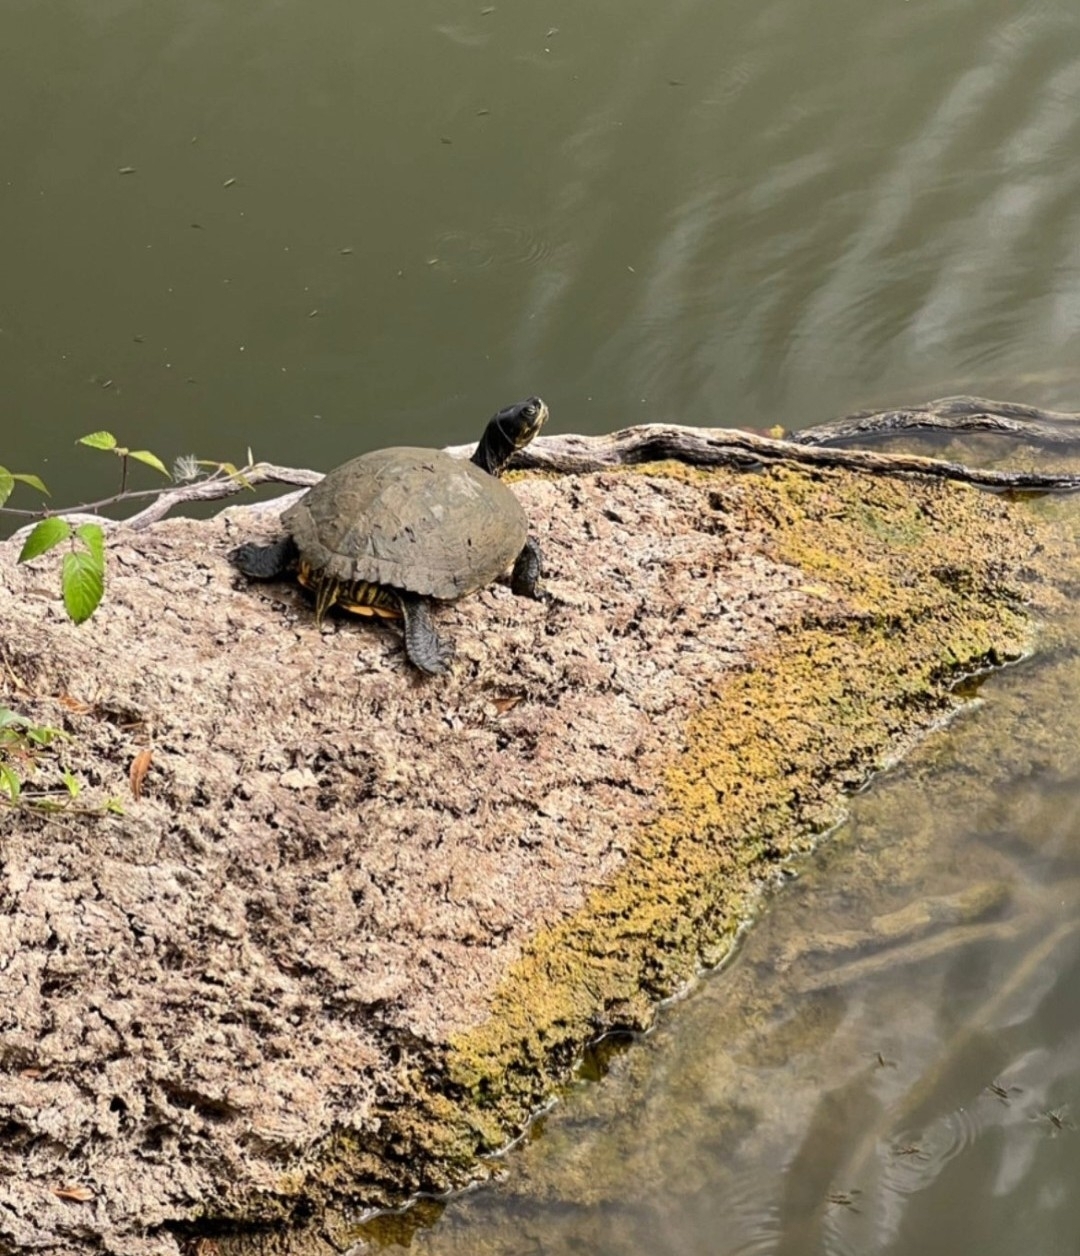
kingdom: Animalia
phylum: Chordata
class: Testudines
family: Emydidae
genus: Trachemys
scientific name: Trachemys scripta
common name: Slider
